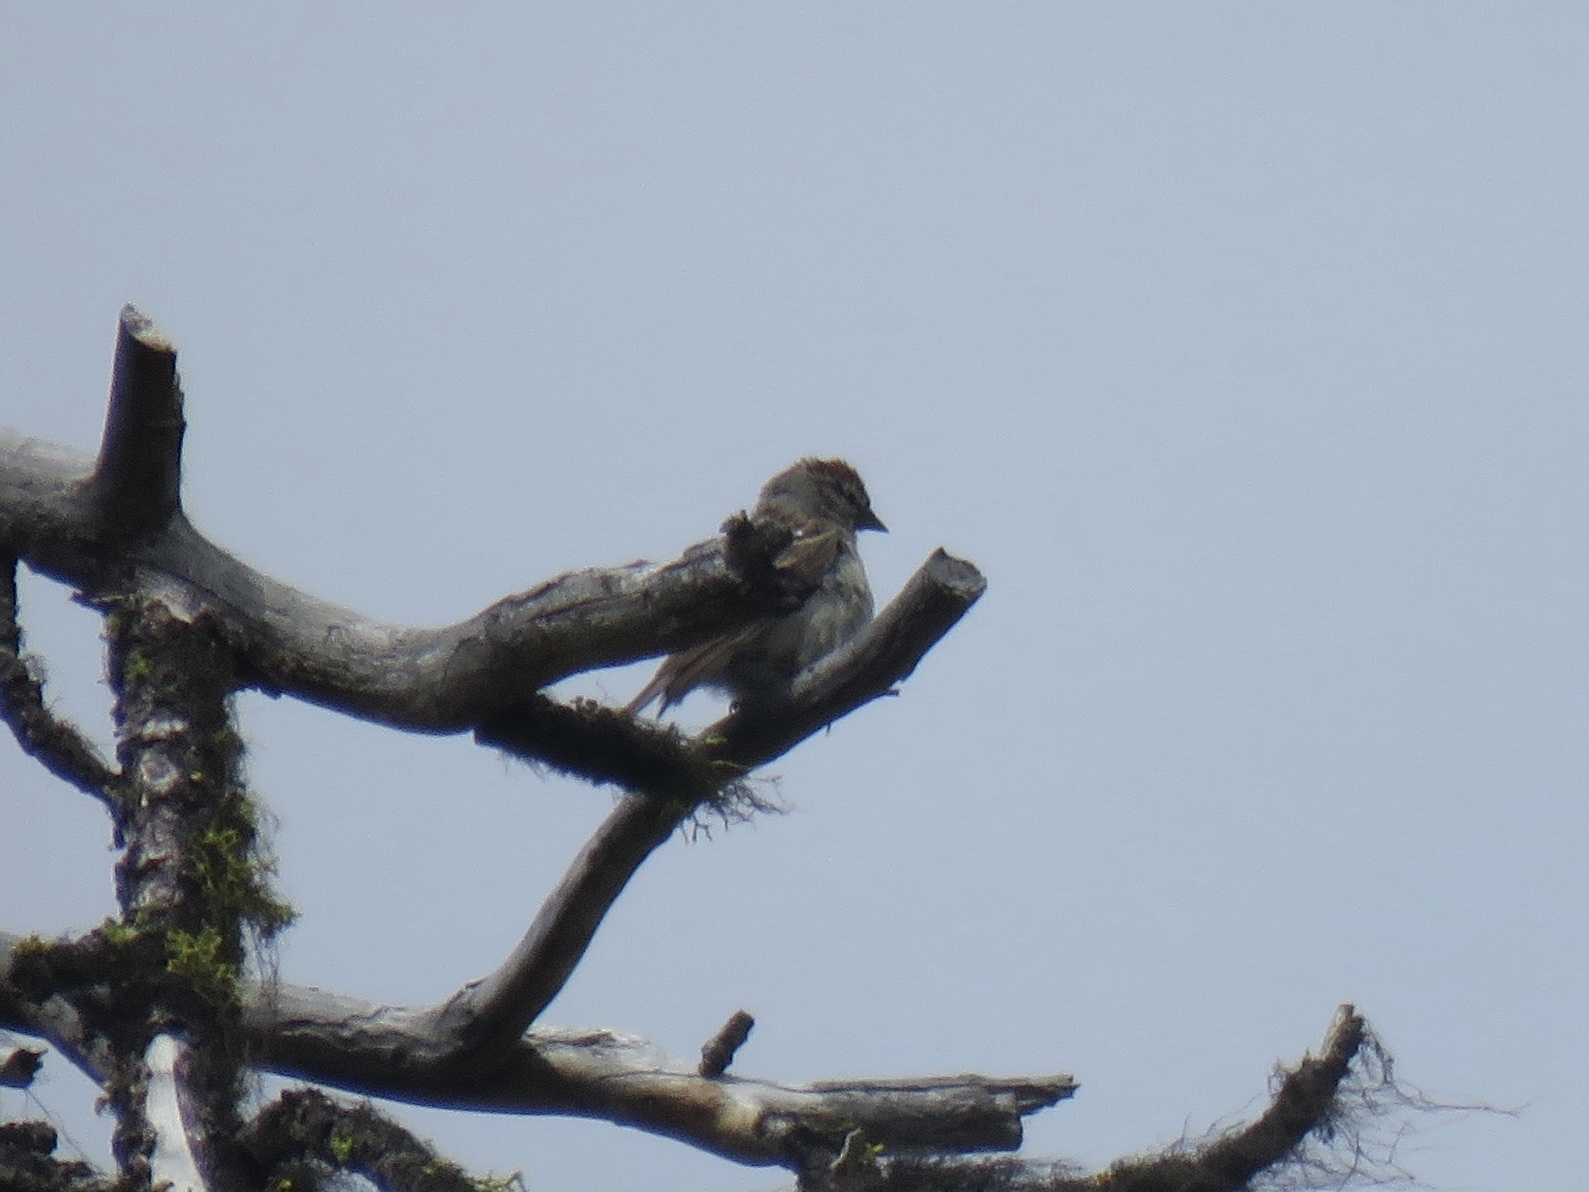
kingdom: Animalia
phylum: Chordata
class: Aves
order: Passeriformes
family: Passerellidae
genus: Spizella
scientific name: Spizella passerina
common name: Chipping sparrow
